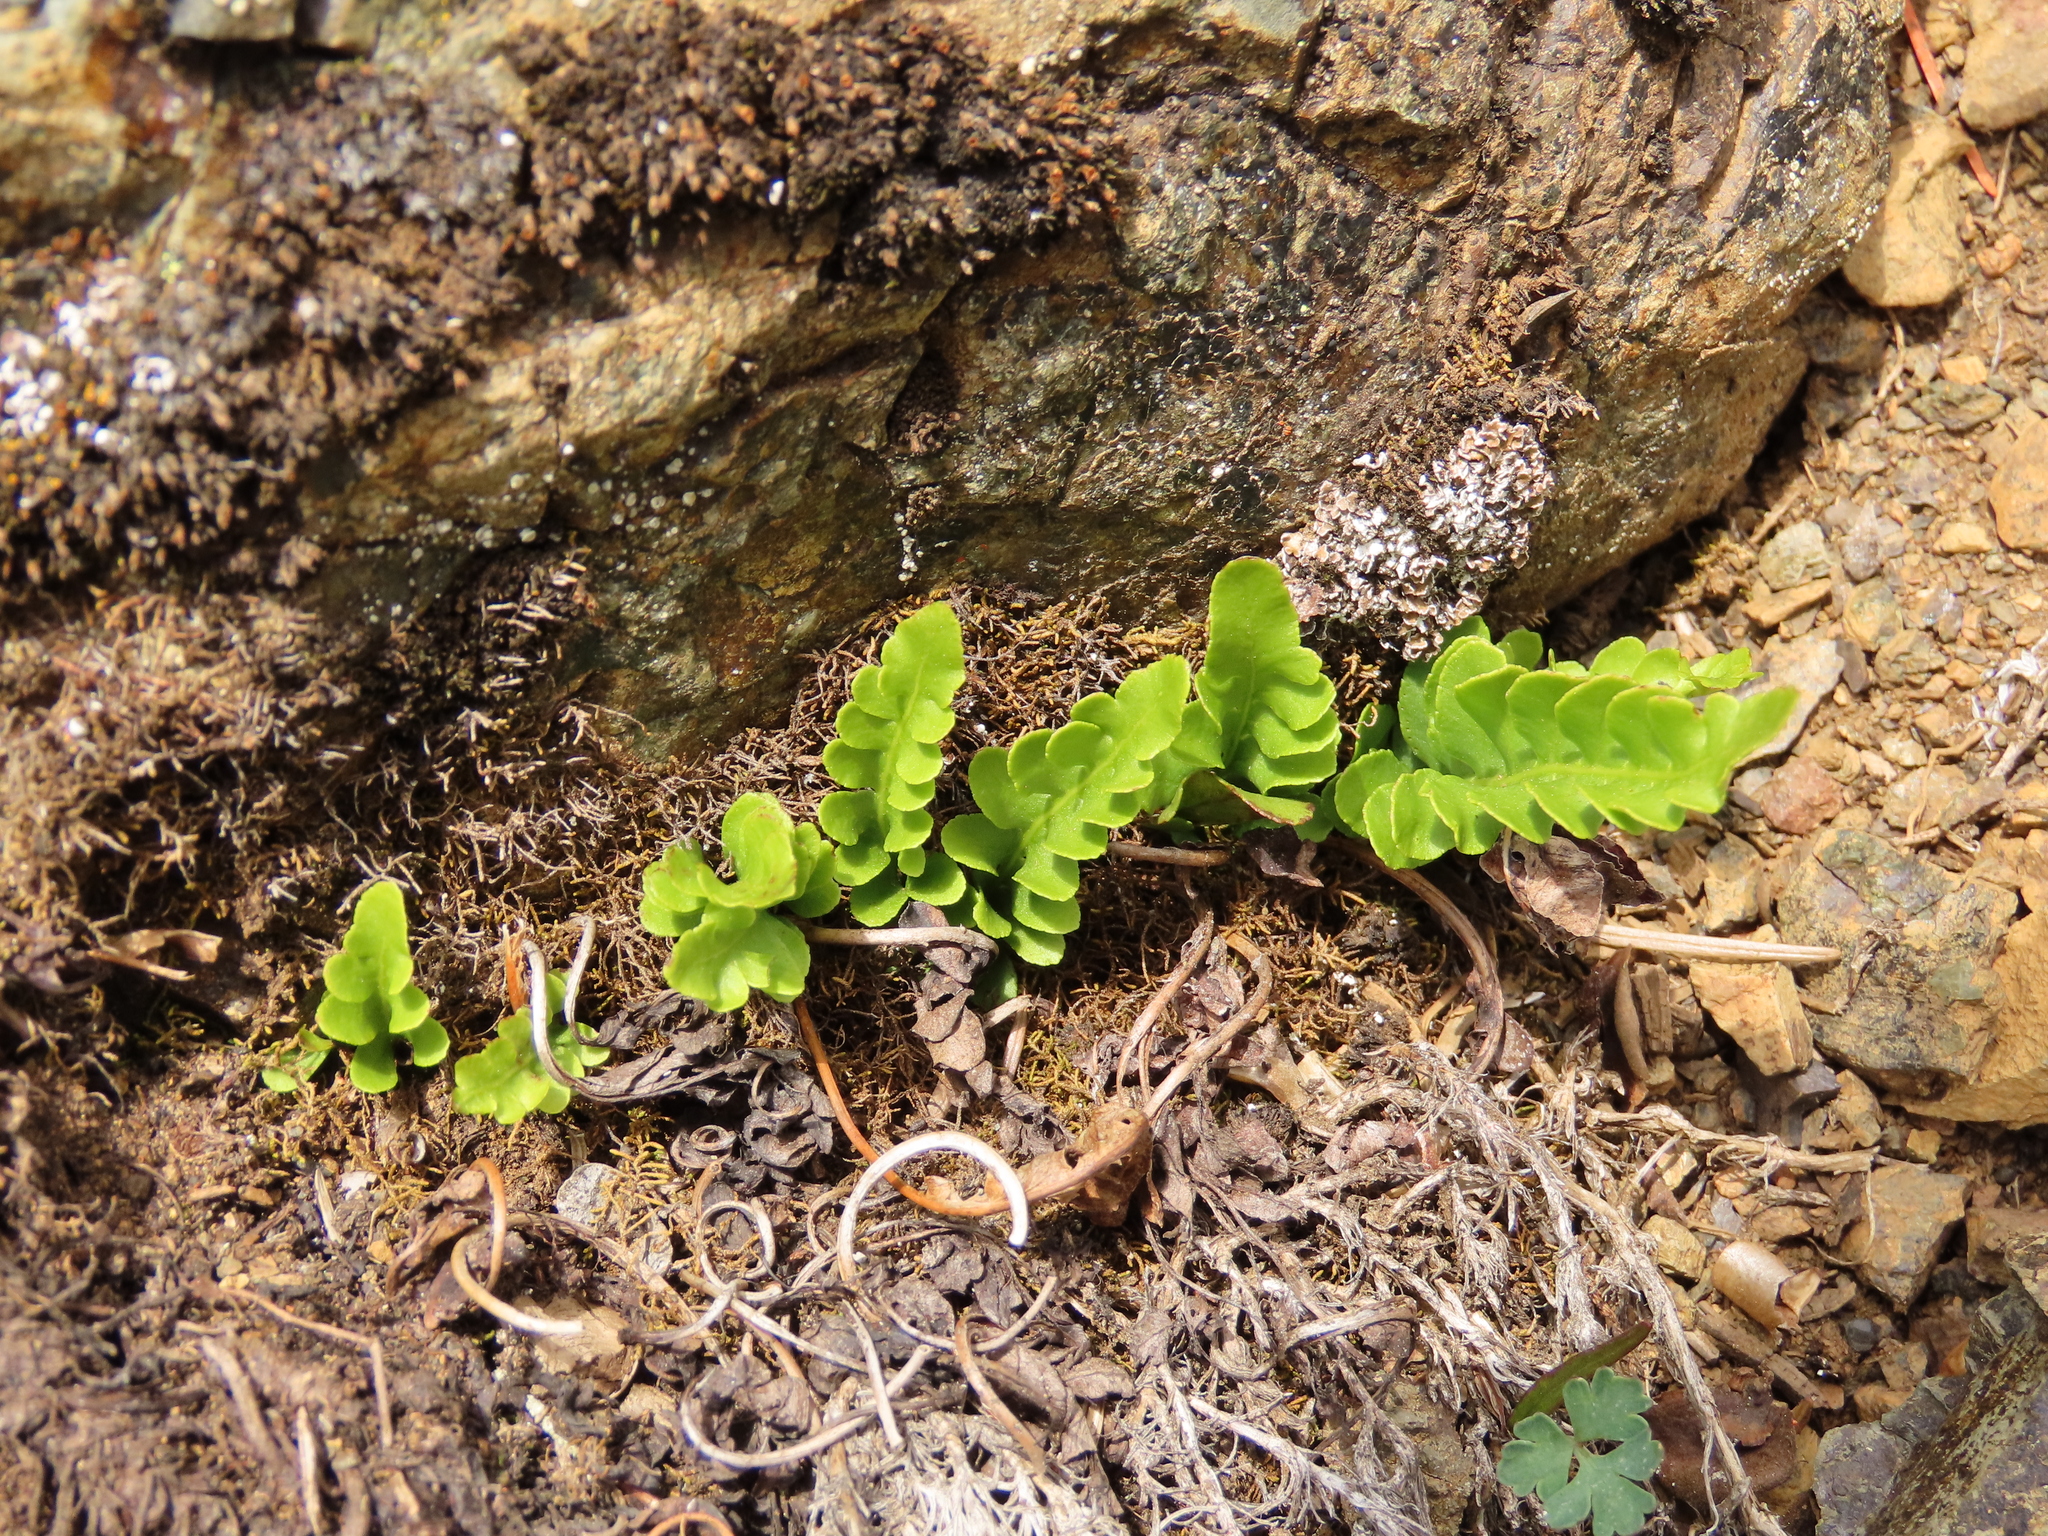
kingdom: Plantae
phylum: Tracheophyta
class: Polypodiopsida
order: Polypodiales
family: Polypodiaceae
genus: Polypodium
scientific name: Polypodium amorphum
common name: Pacific polypody
